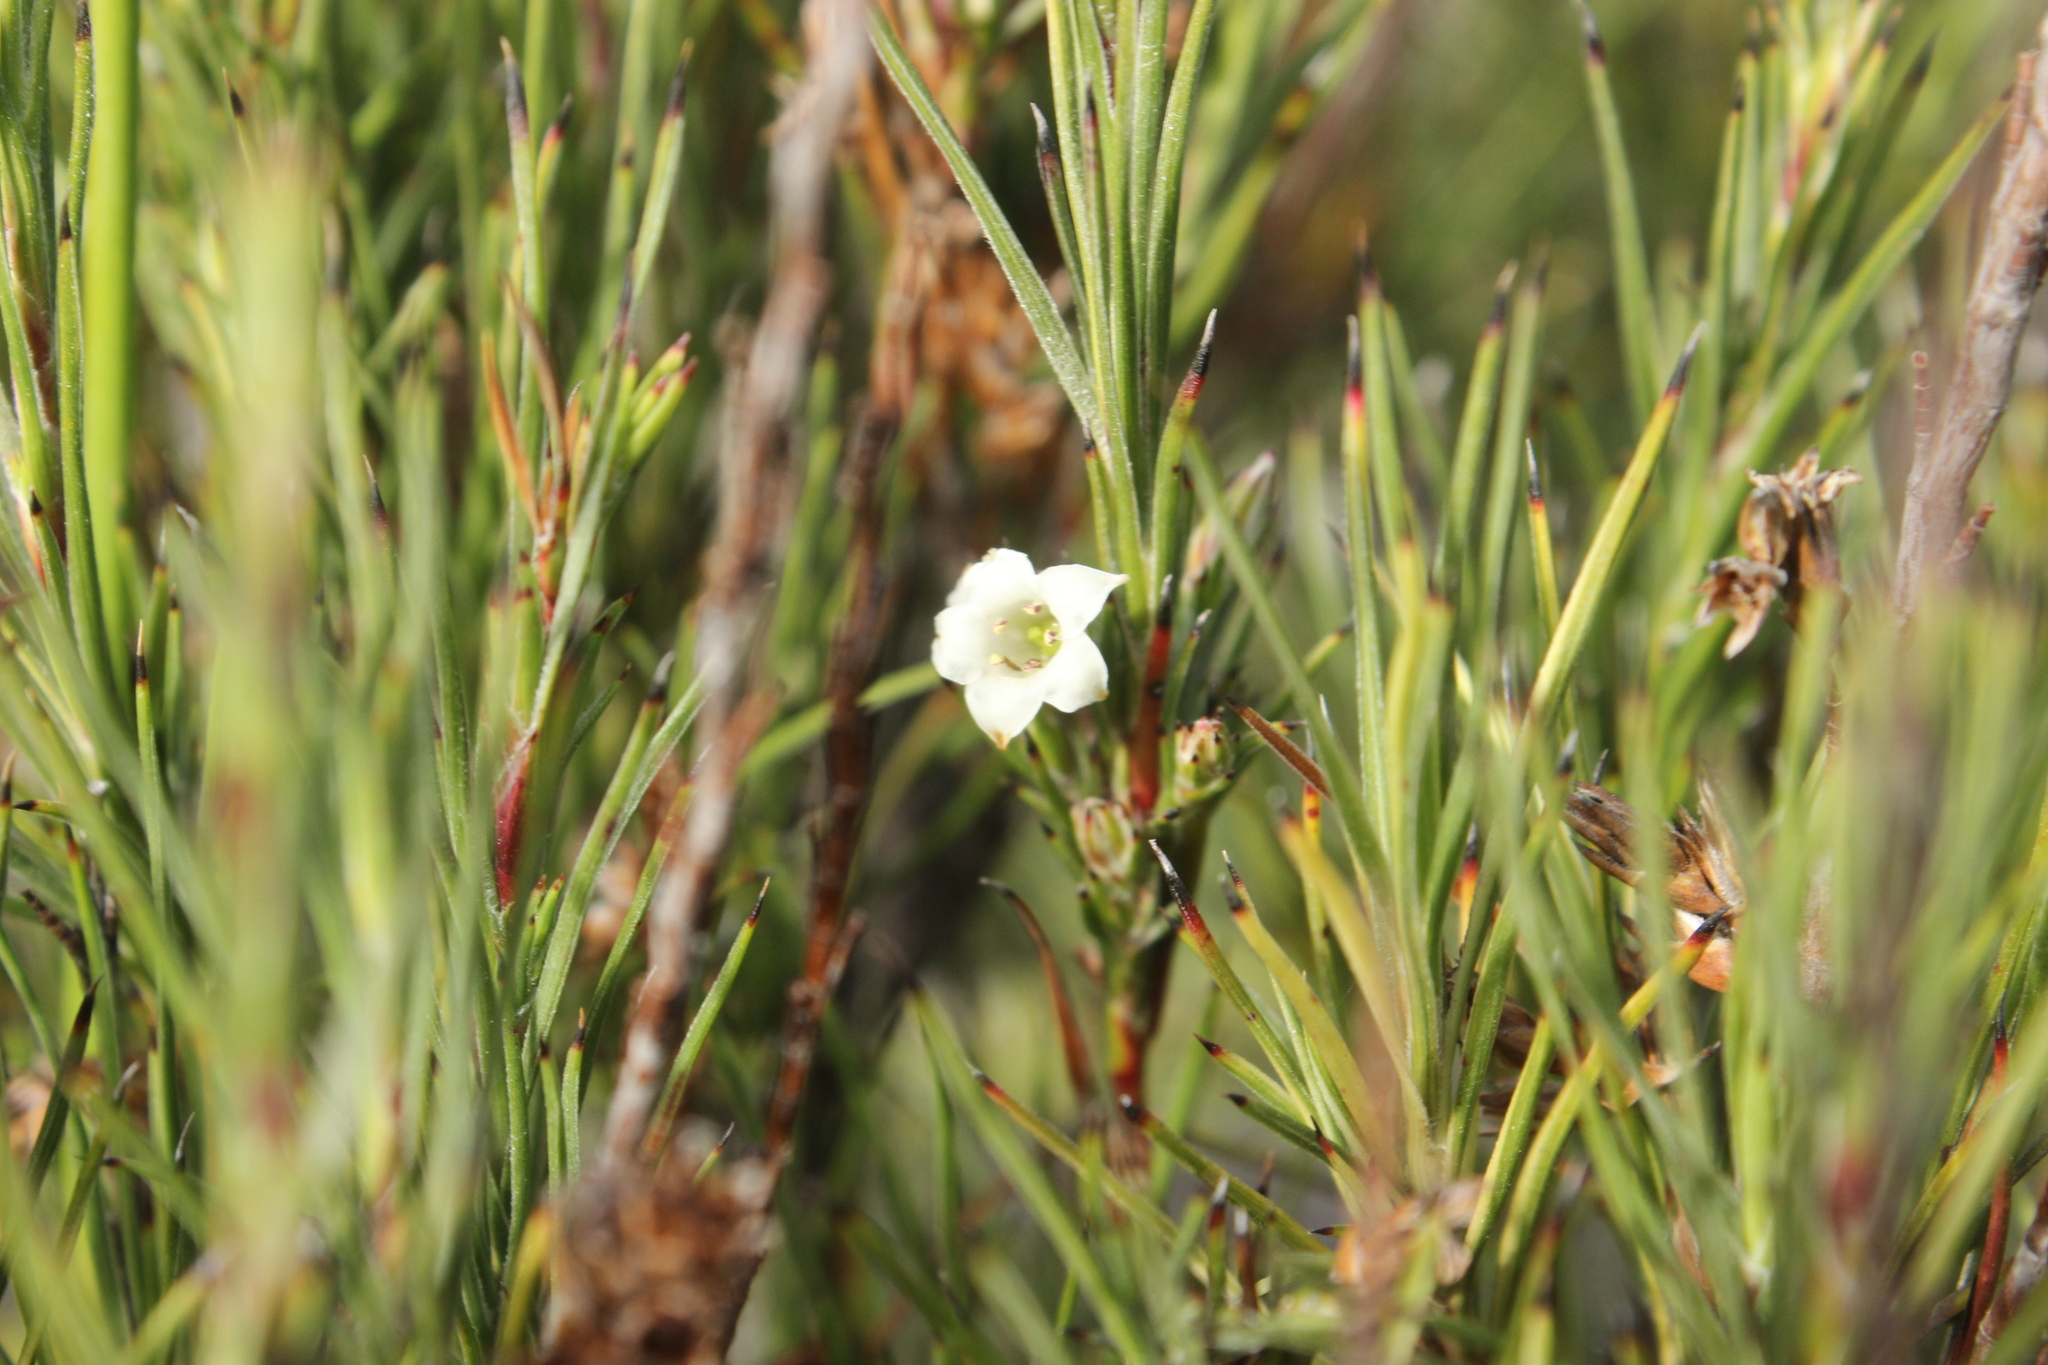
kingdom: Plantae
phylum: Tracheophyta
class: Magnoliopsida
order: Ericales
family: Ericaceae
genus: Dracophyllum
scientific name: Dracophyllum scoparium
